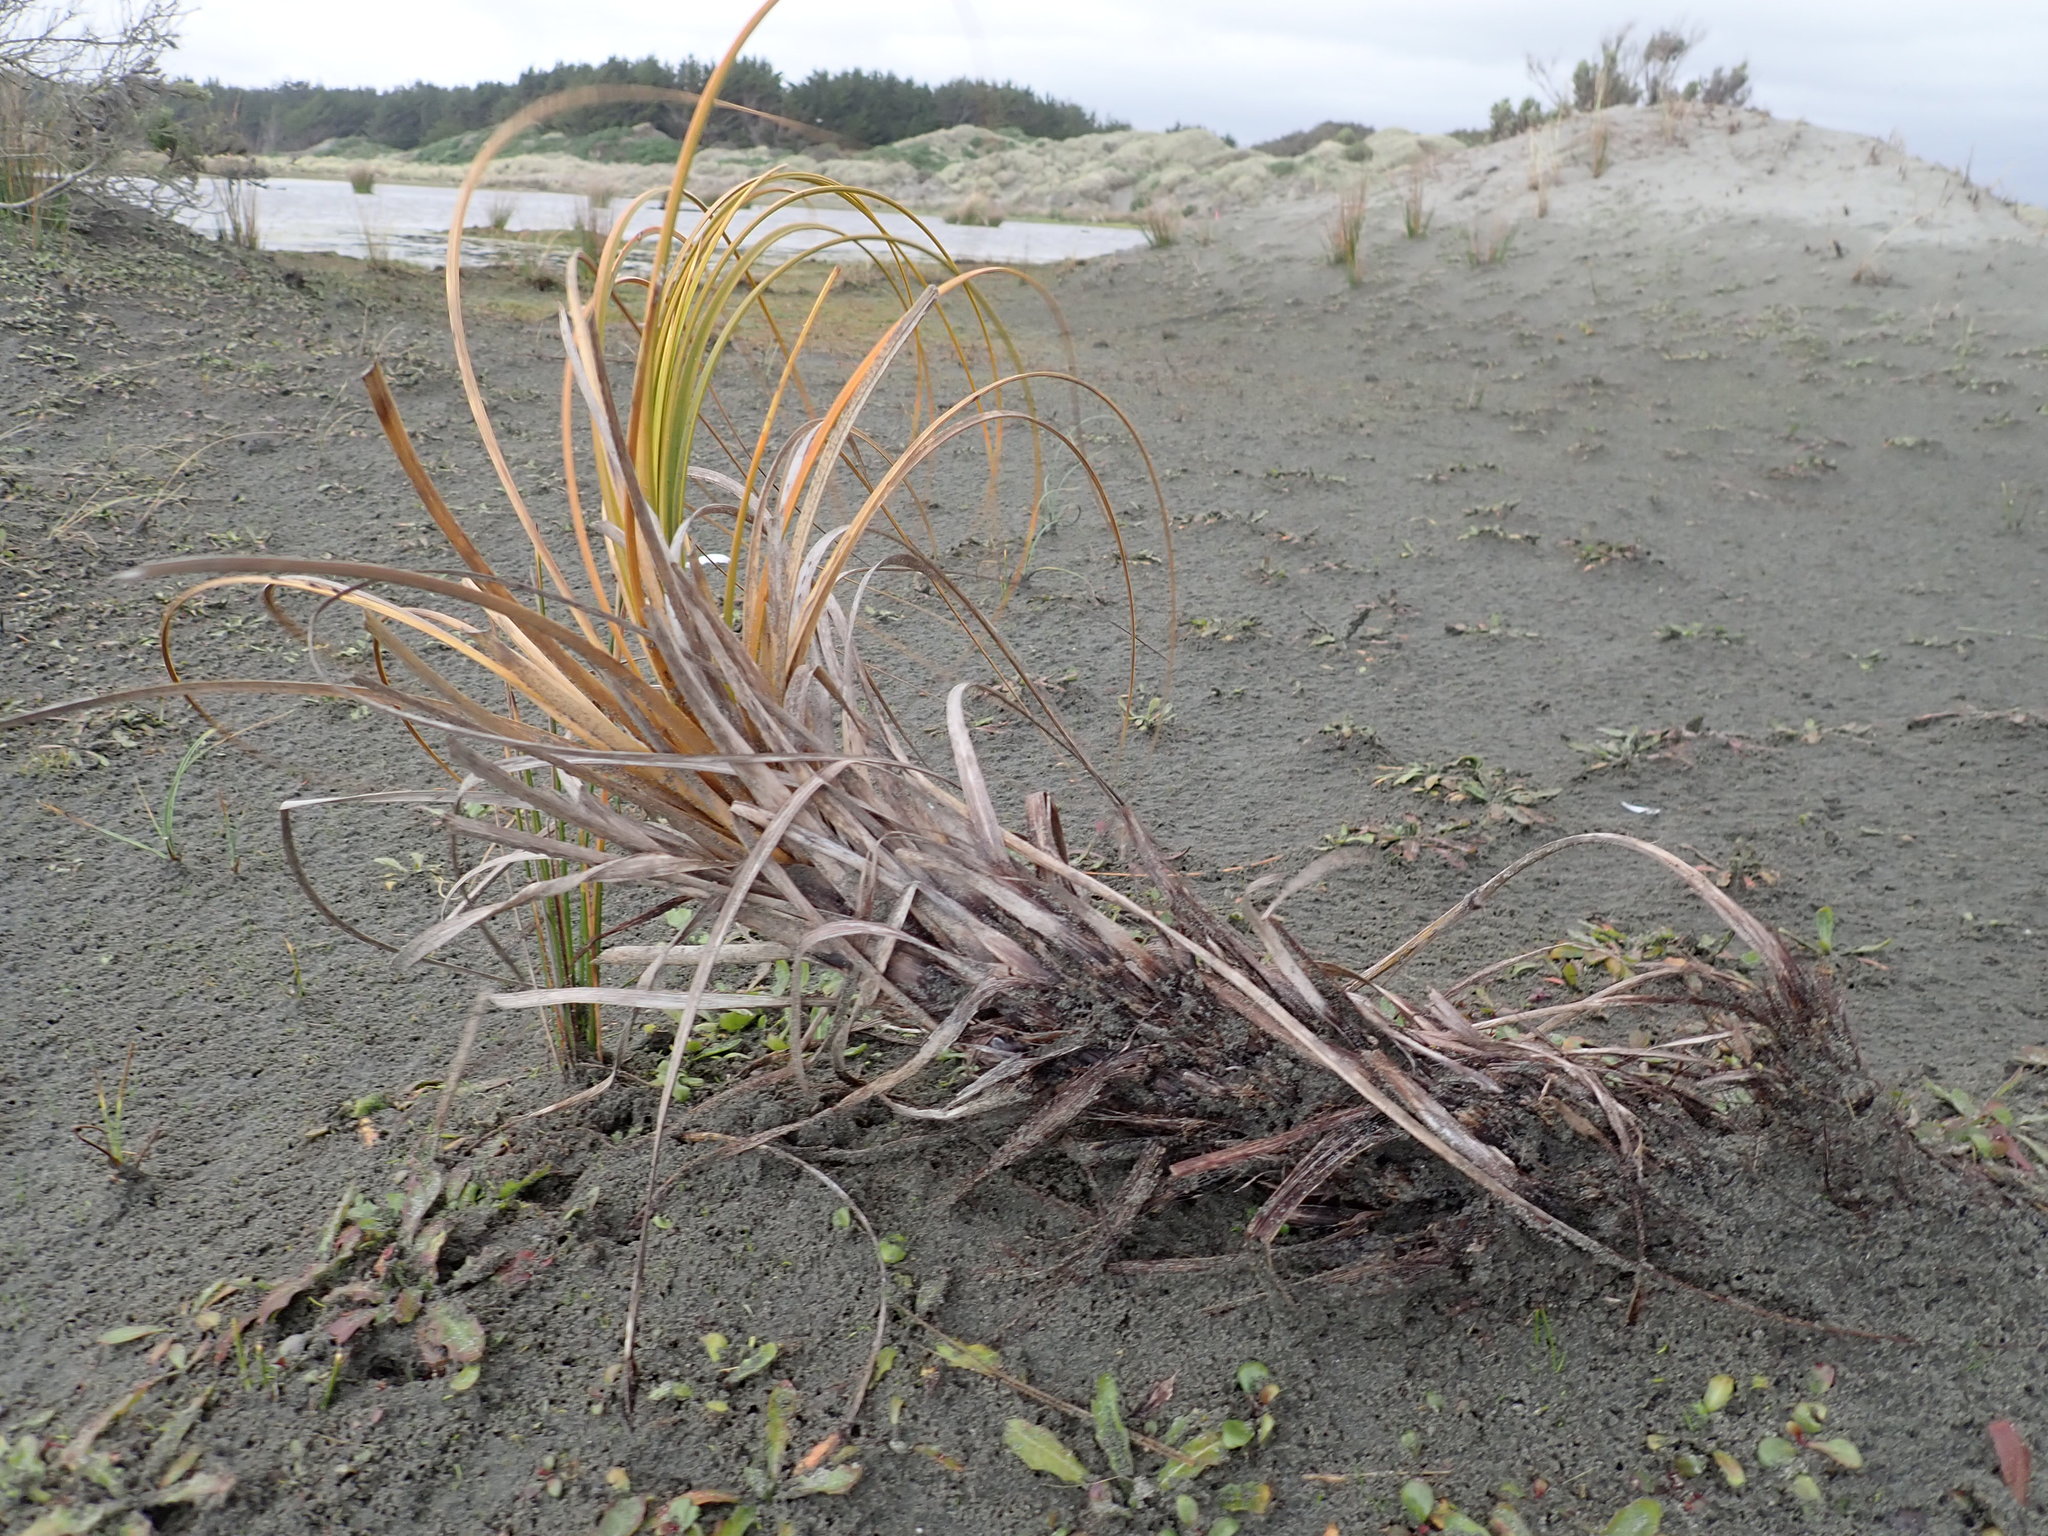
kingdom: Plantae
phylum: Tracheophyta
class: Liliopsida
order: Poales
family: Cyperaceae
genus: Ficinia
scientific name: Ficinia spiralis
